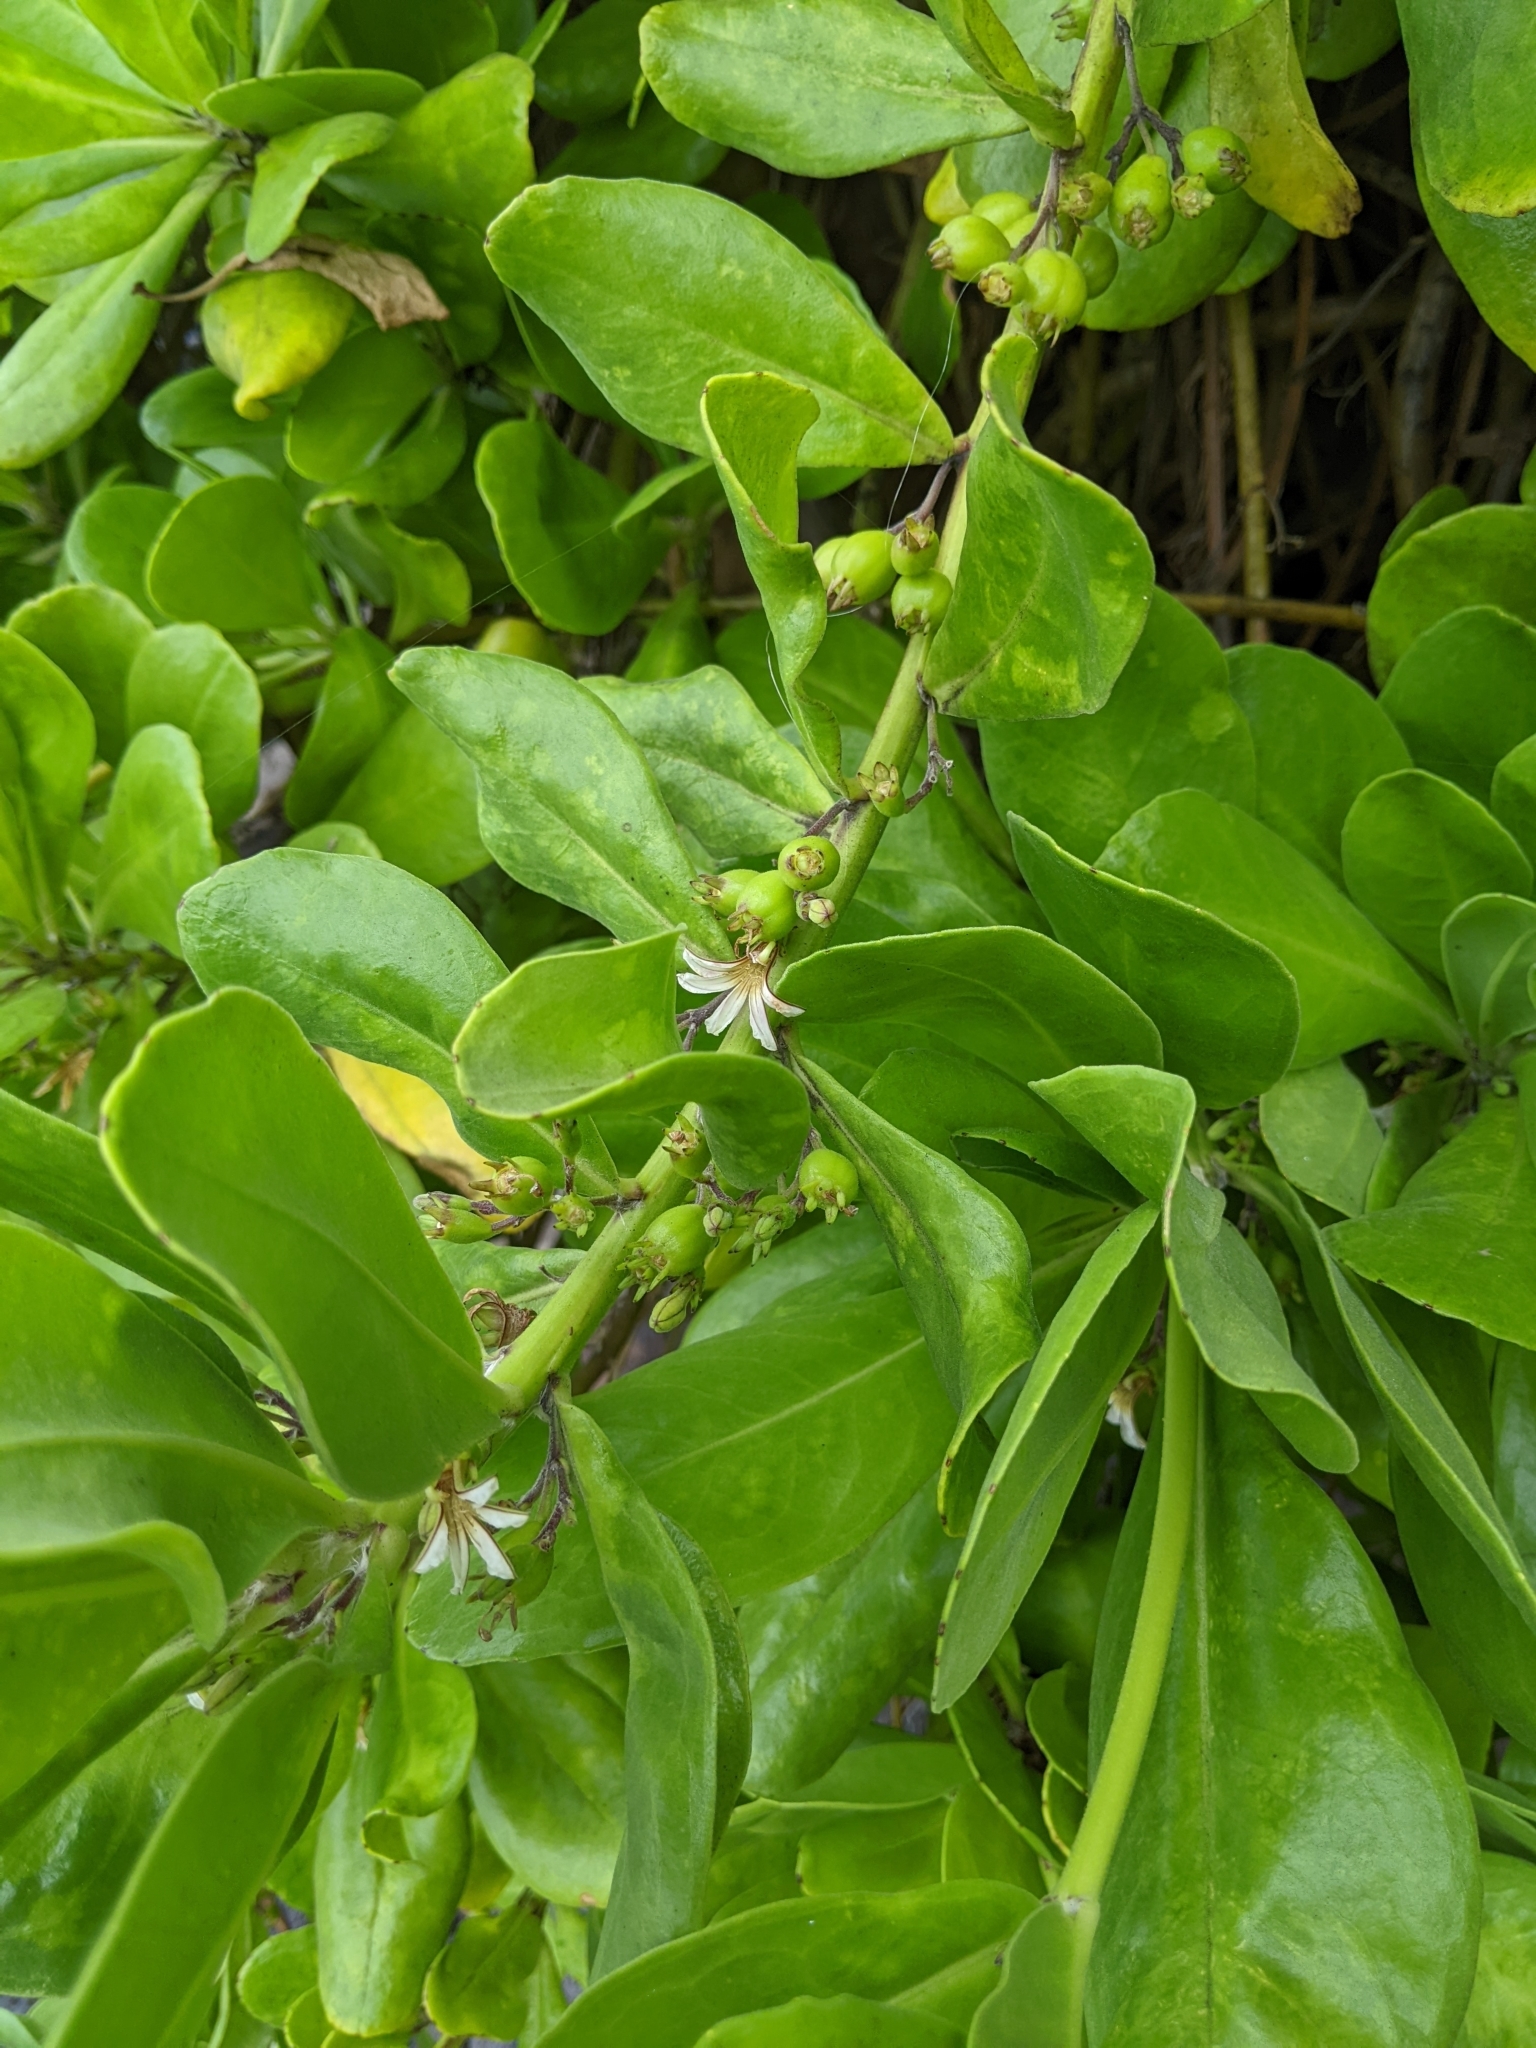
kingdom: Plantae
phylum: Tracheophyta
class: Magnoliopsida
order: Asterales
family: Goodeniaceae
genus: Scaevola
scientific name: Scaevola taccada
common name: Sea lettucetree
